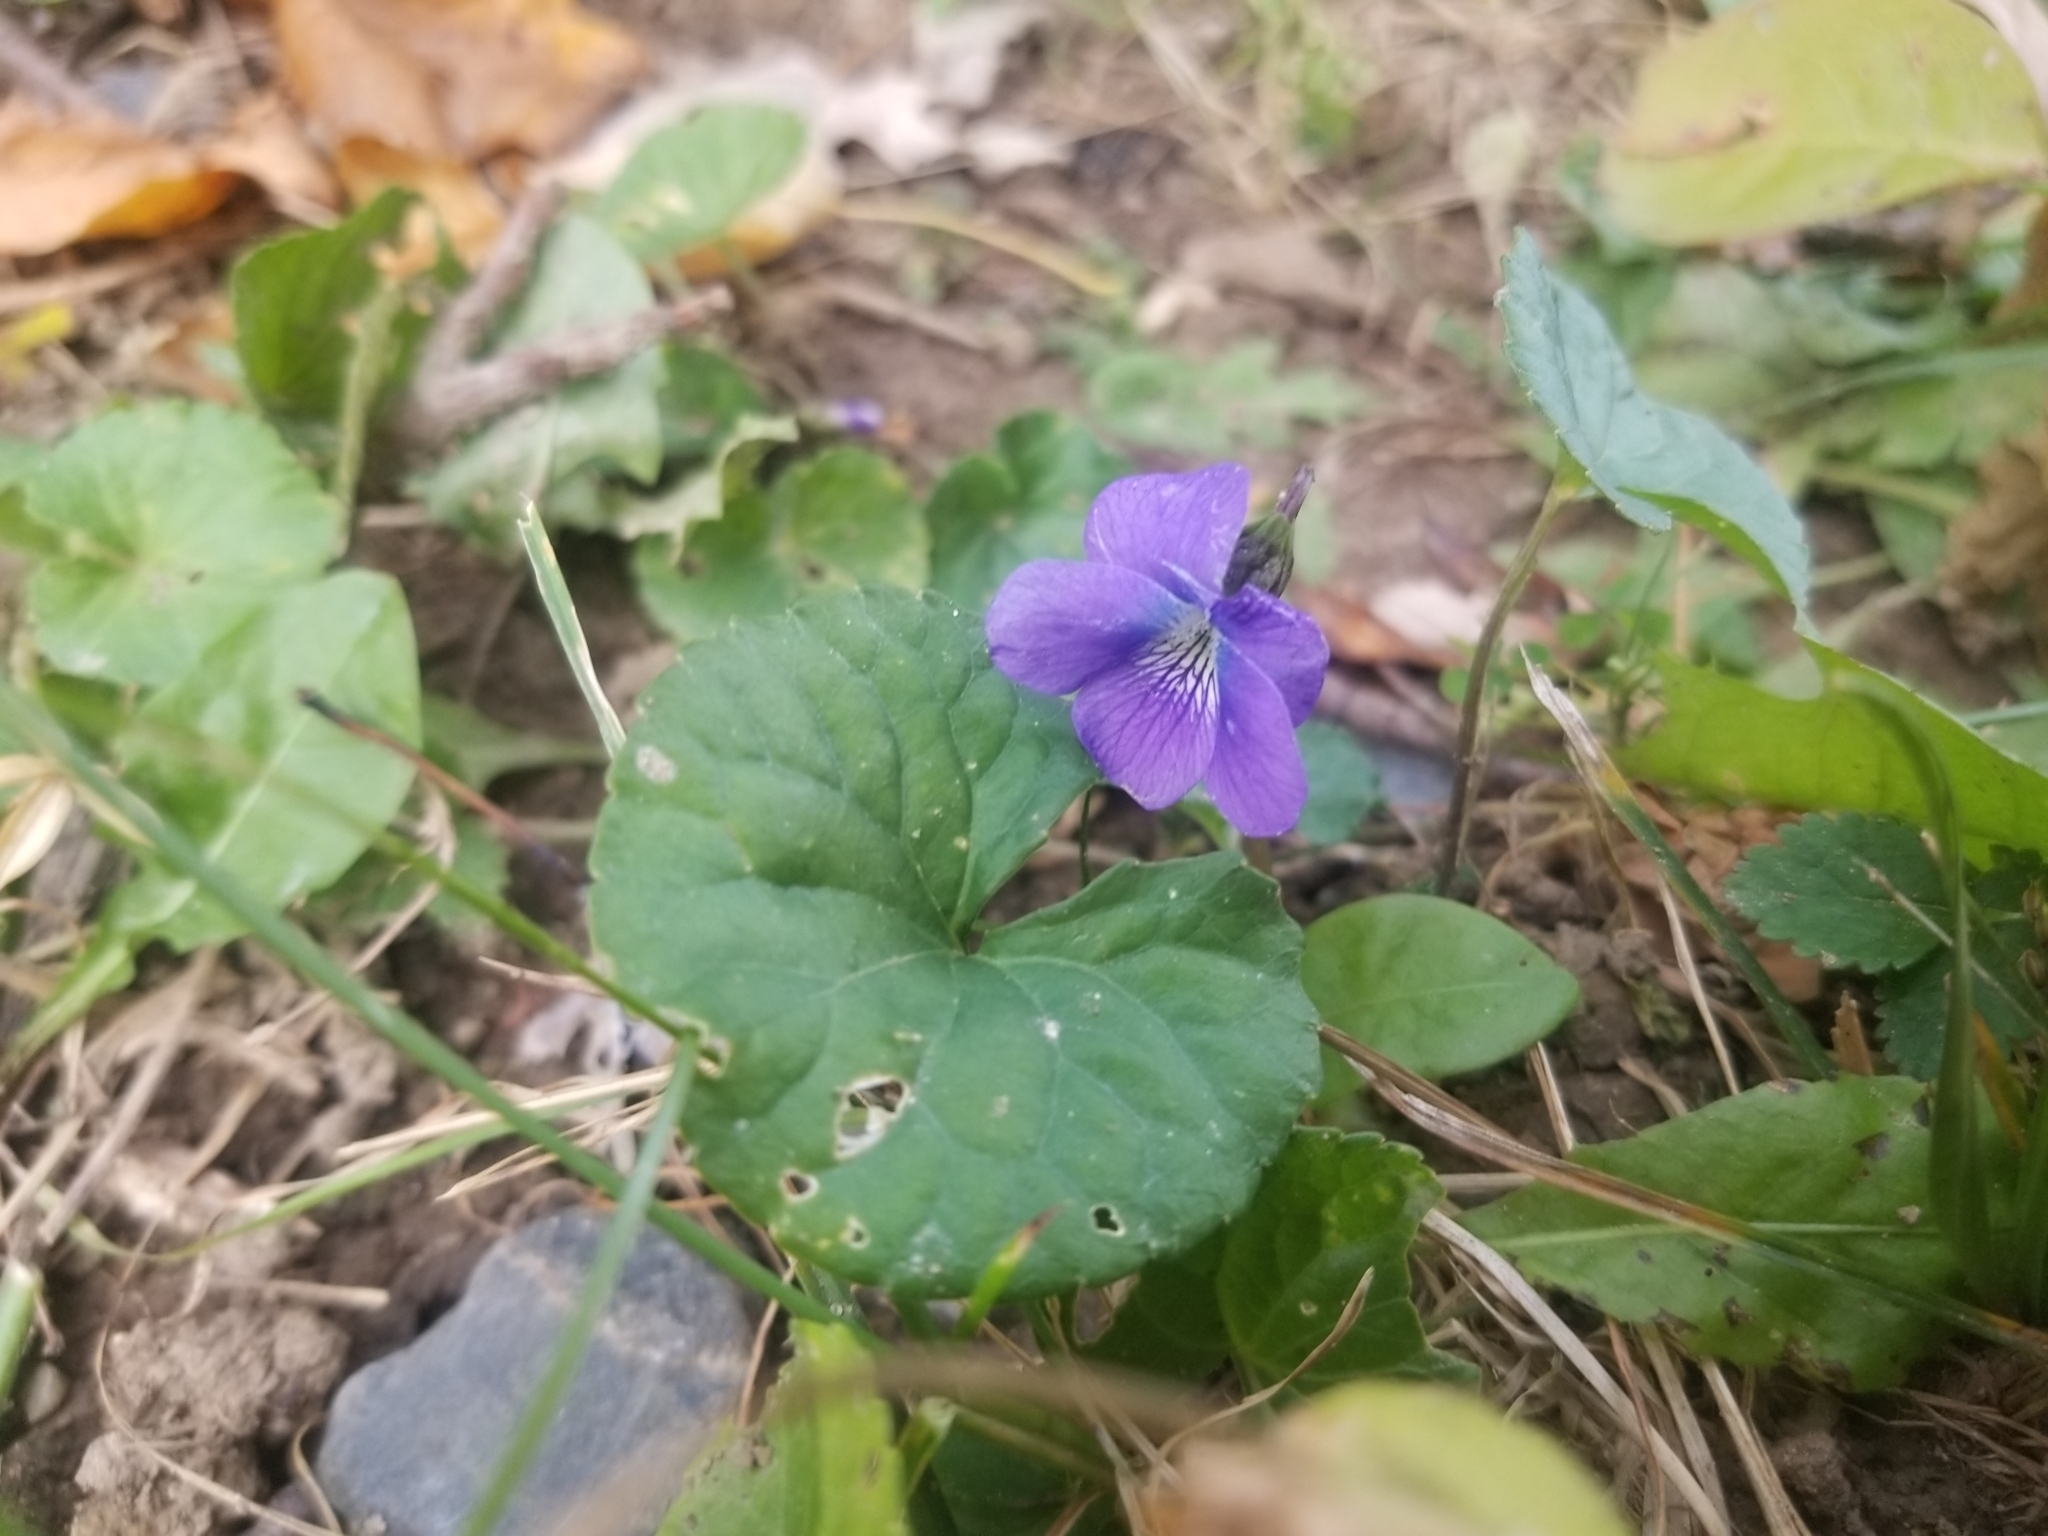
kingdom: Plantae
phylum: Tracheophyta
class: Magnoliopsida
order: Malpighiales
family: Violaceae
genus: Viola
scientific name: Viola sororia
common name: Dooryard violet
